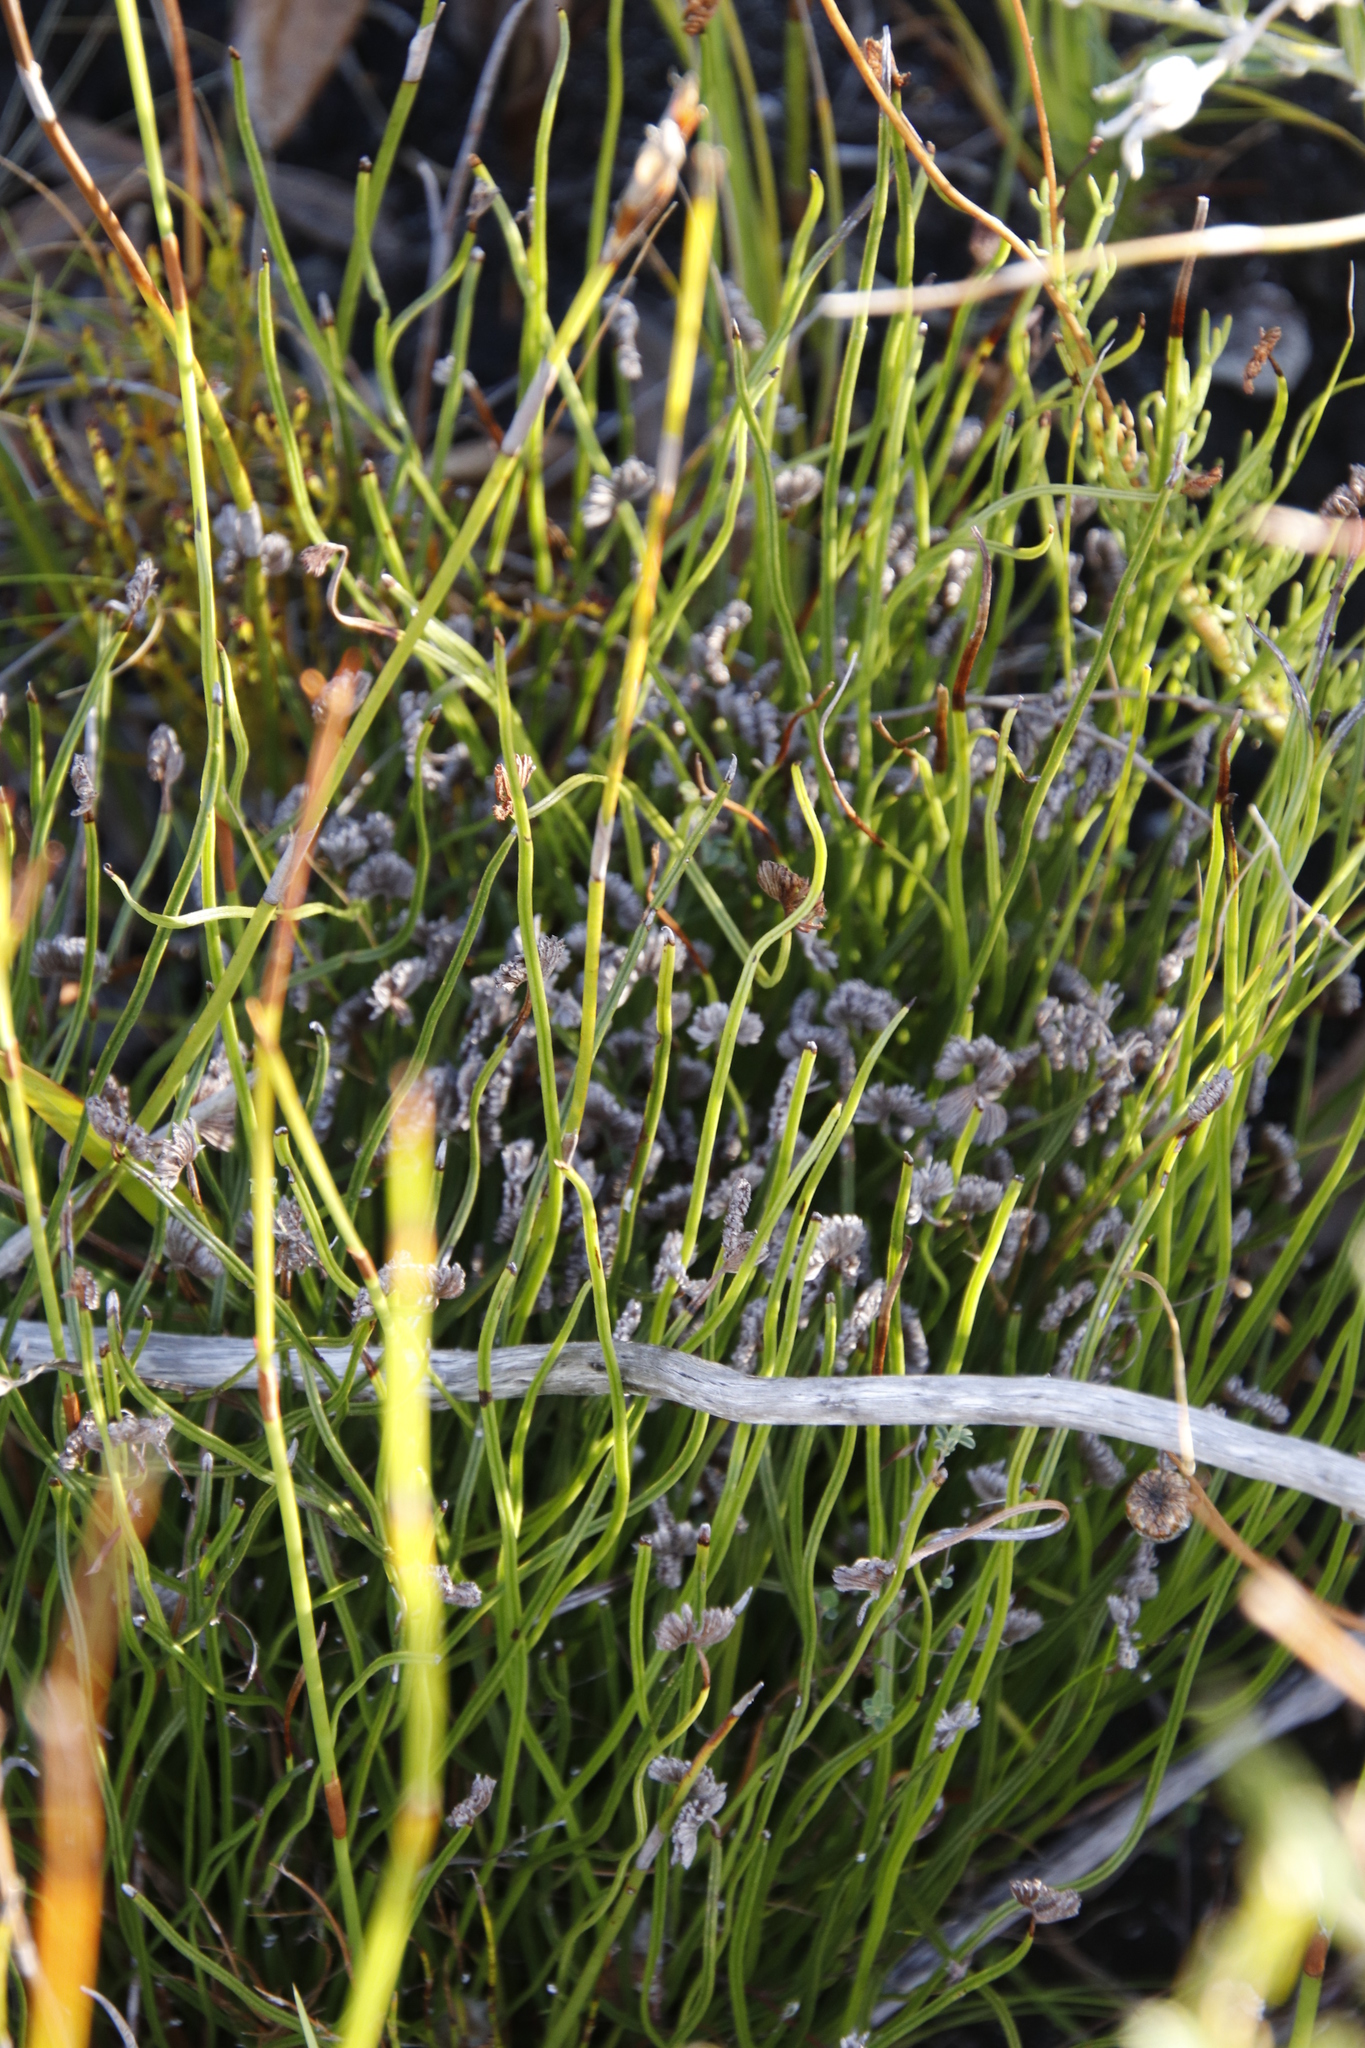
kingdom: Plantae
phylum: Tracheophyta
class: Polypodiopsida
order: Schizaeales
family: Schizaeaceae
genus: Schizaea
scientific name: Schizaea pectinata
